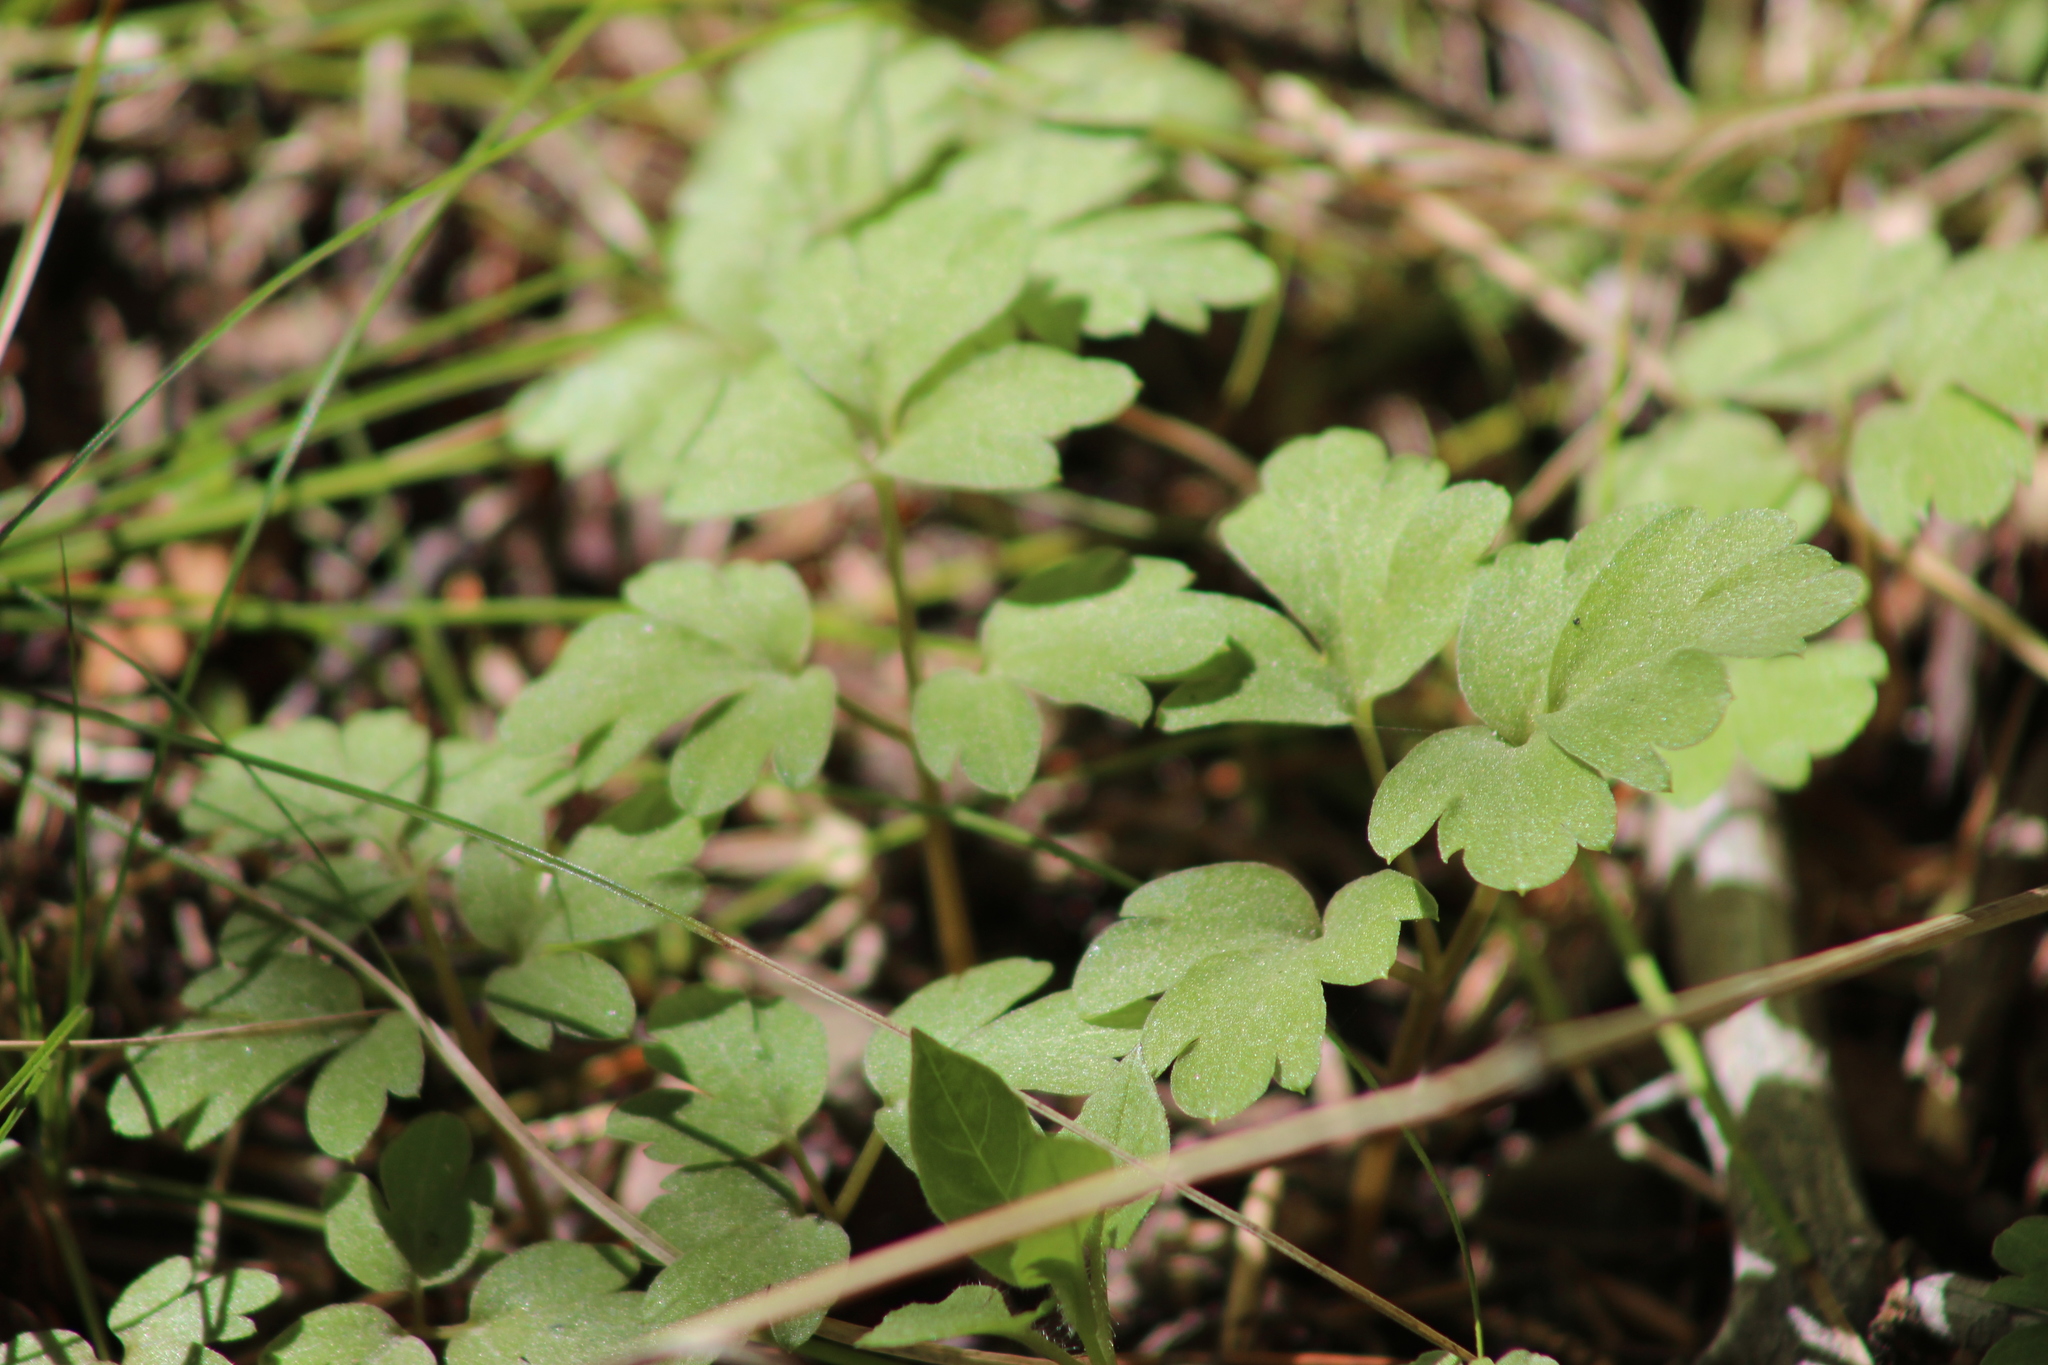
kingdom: Plantae
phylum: Tracheophyta
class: Magnoliopsida
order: Dipsacales
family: Viburnaceae
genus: Adoxa
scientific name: Adoxa moschatellina
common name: Moschatel
